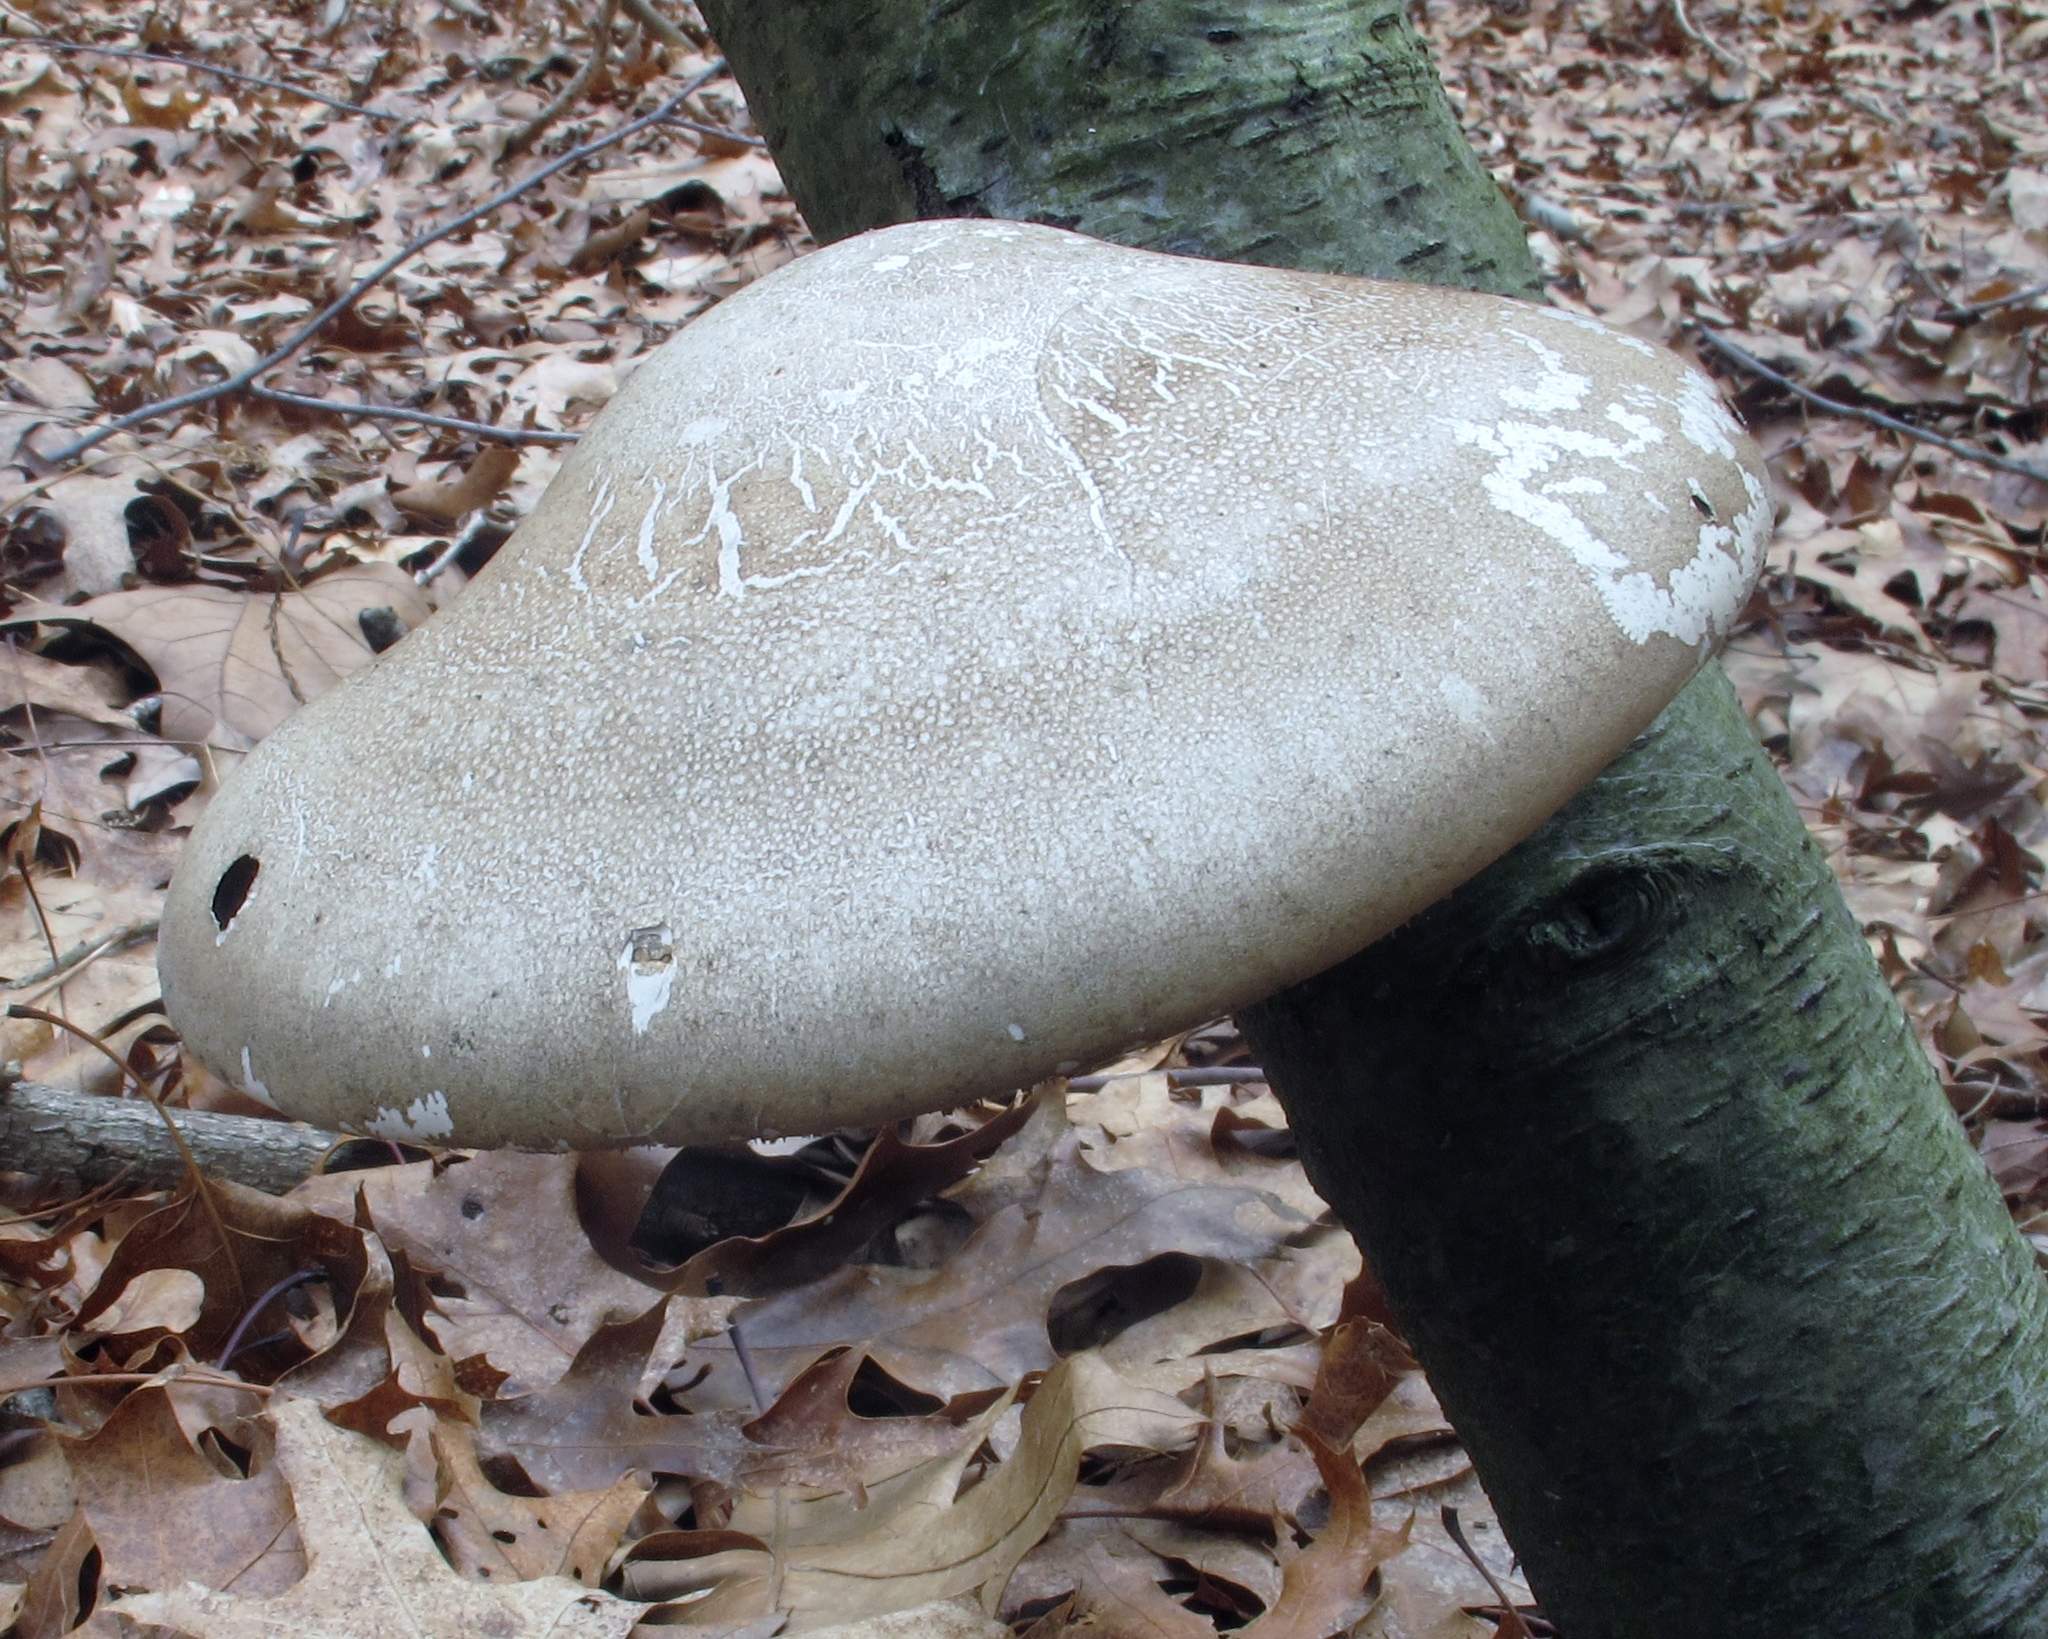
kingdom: Fungi
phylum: Basidiomycota
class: Agaricomycetes
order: Polyporales
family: Fomitopsidaceae
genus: Fomitopsis
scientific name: Fomitopsis betulina
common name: Birch polypore
